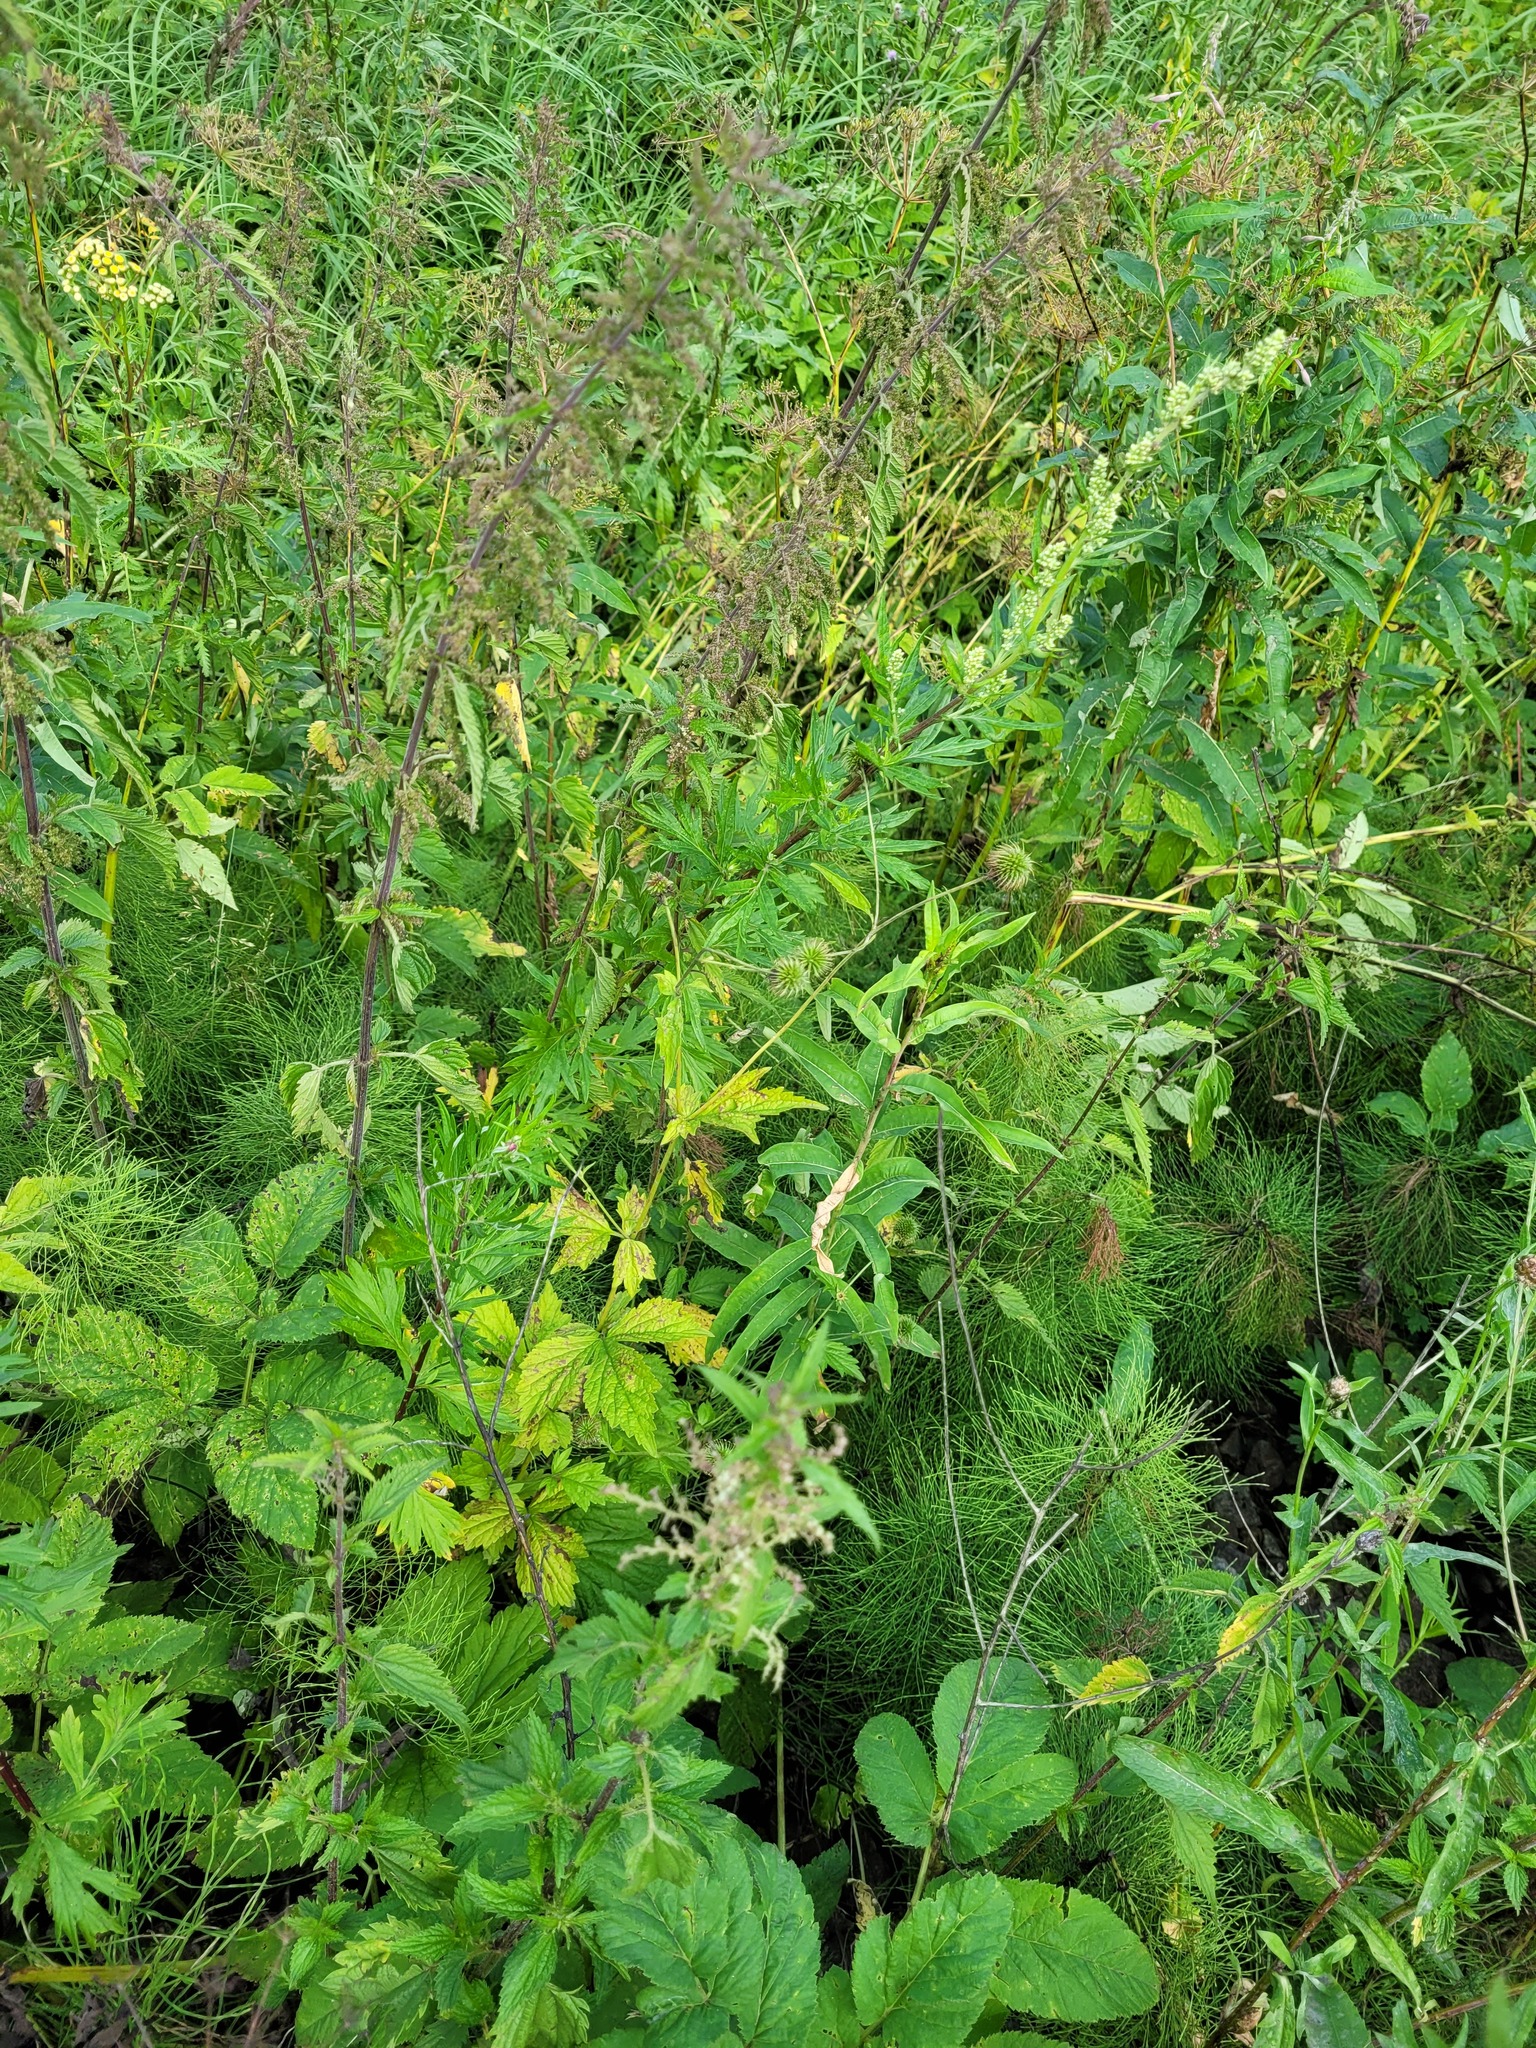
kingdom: Plantae
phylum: Tracheophyta
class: Magnoliopsida
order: Rosales
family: Rosaceae
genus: Geum
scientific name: Geum urbanum
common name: Wood avens
